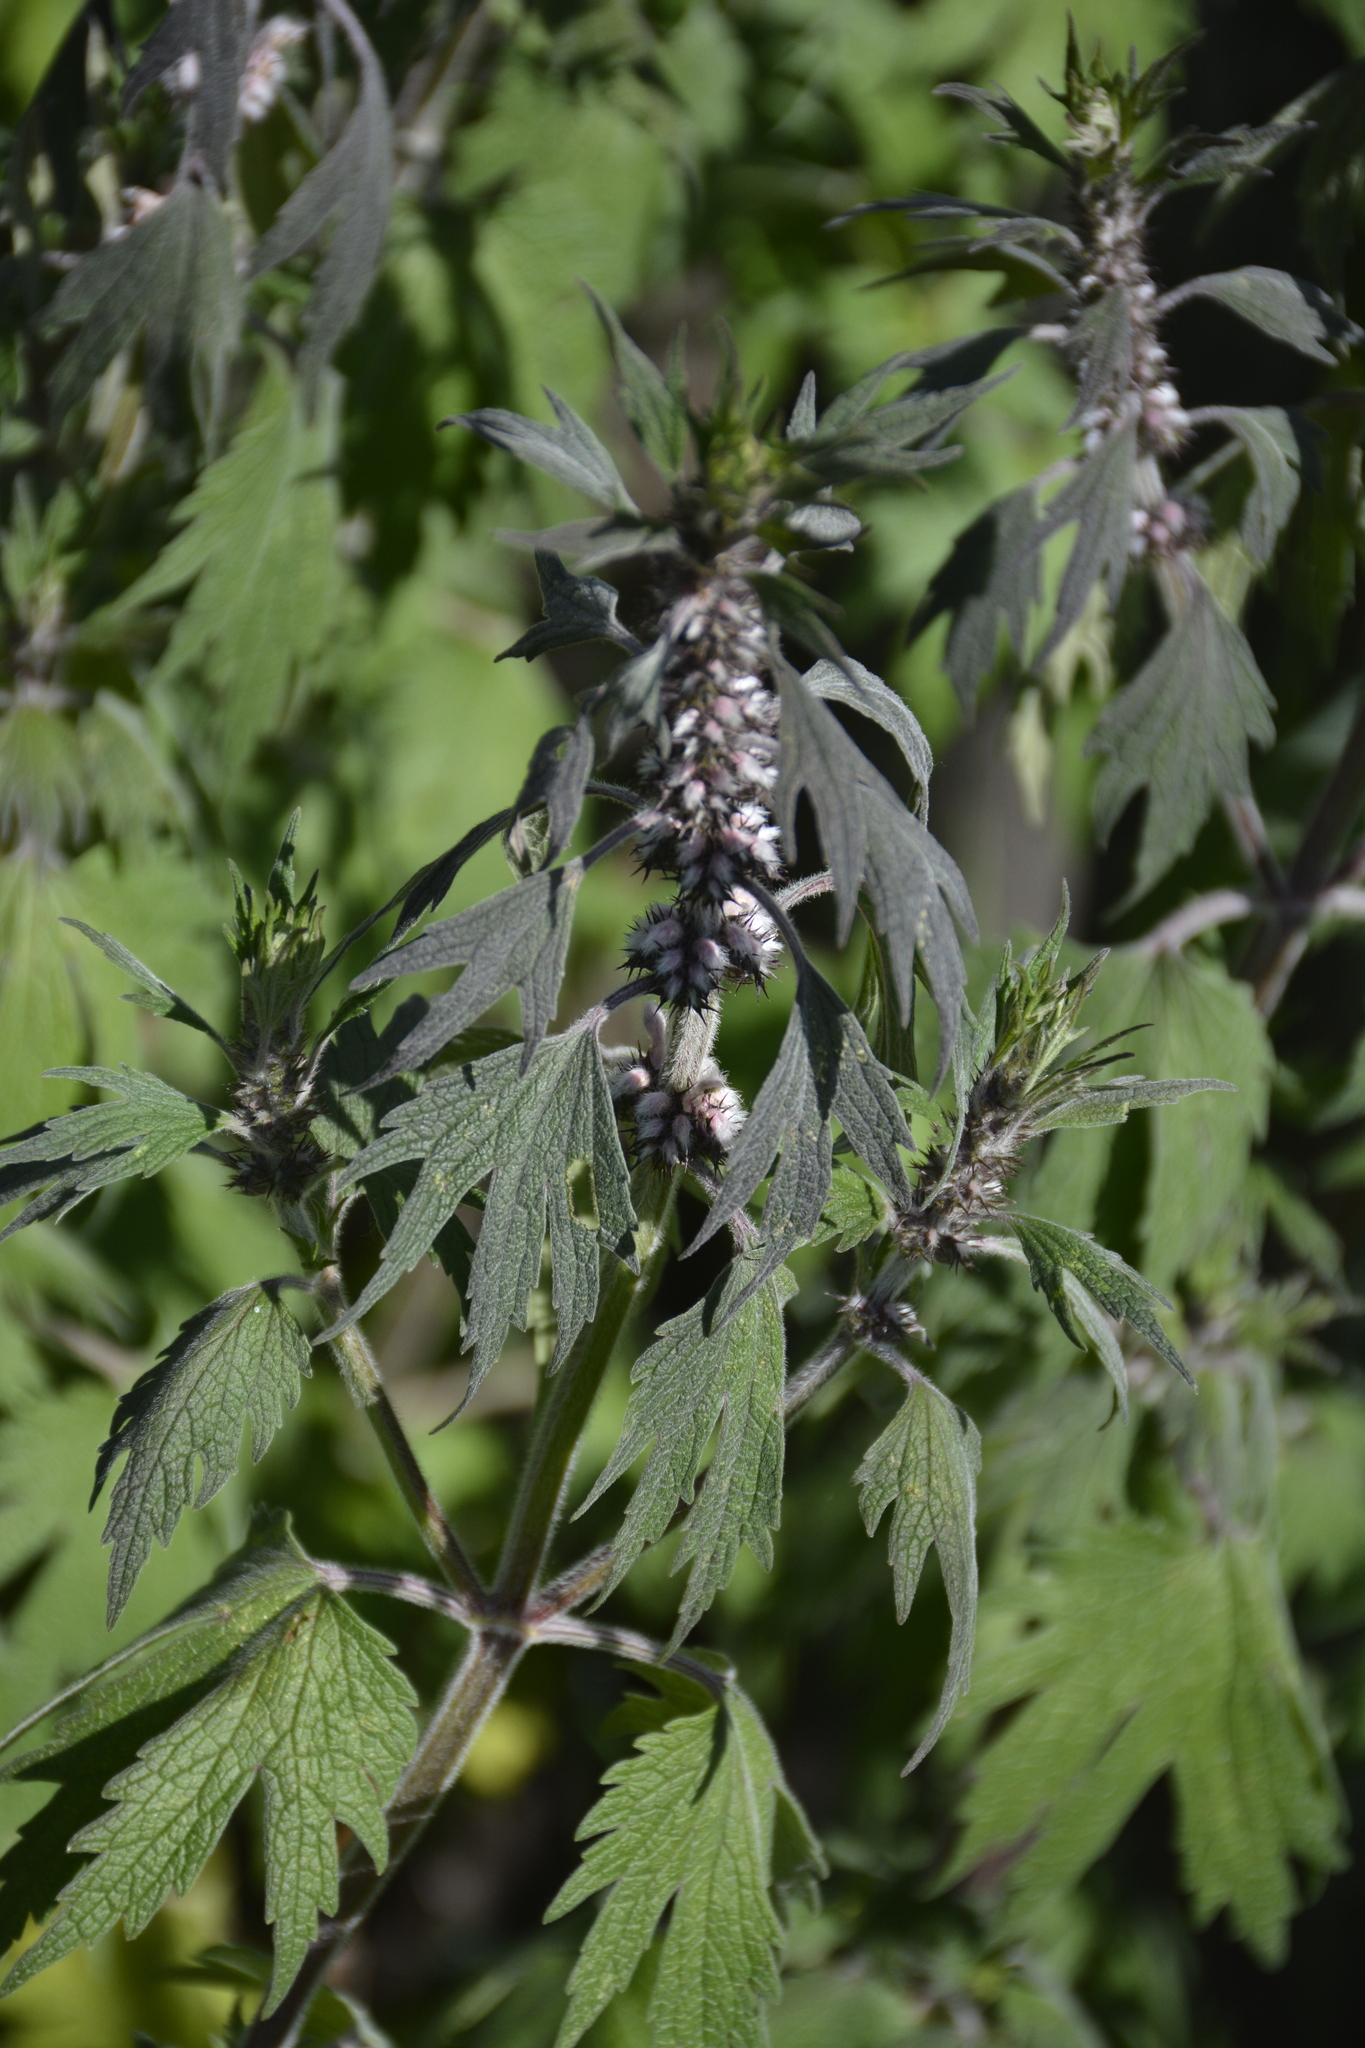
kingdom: Plantae
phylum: Tracheophyta
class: Magnoliopsida
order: Lamiales
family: Lamiaceae
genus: Leonurus
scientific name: Leonurus quinquelobatus
